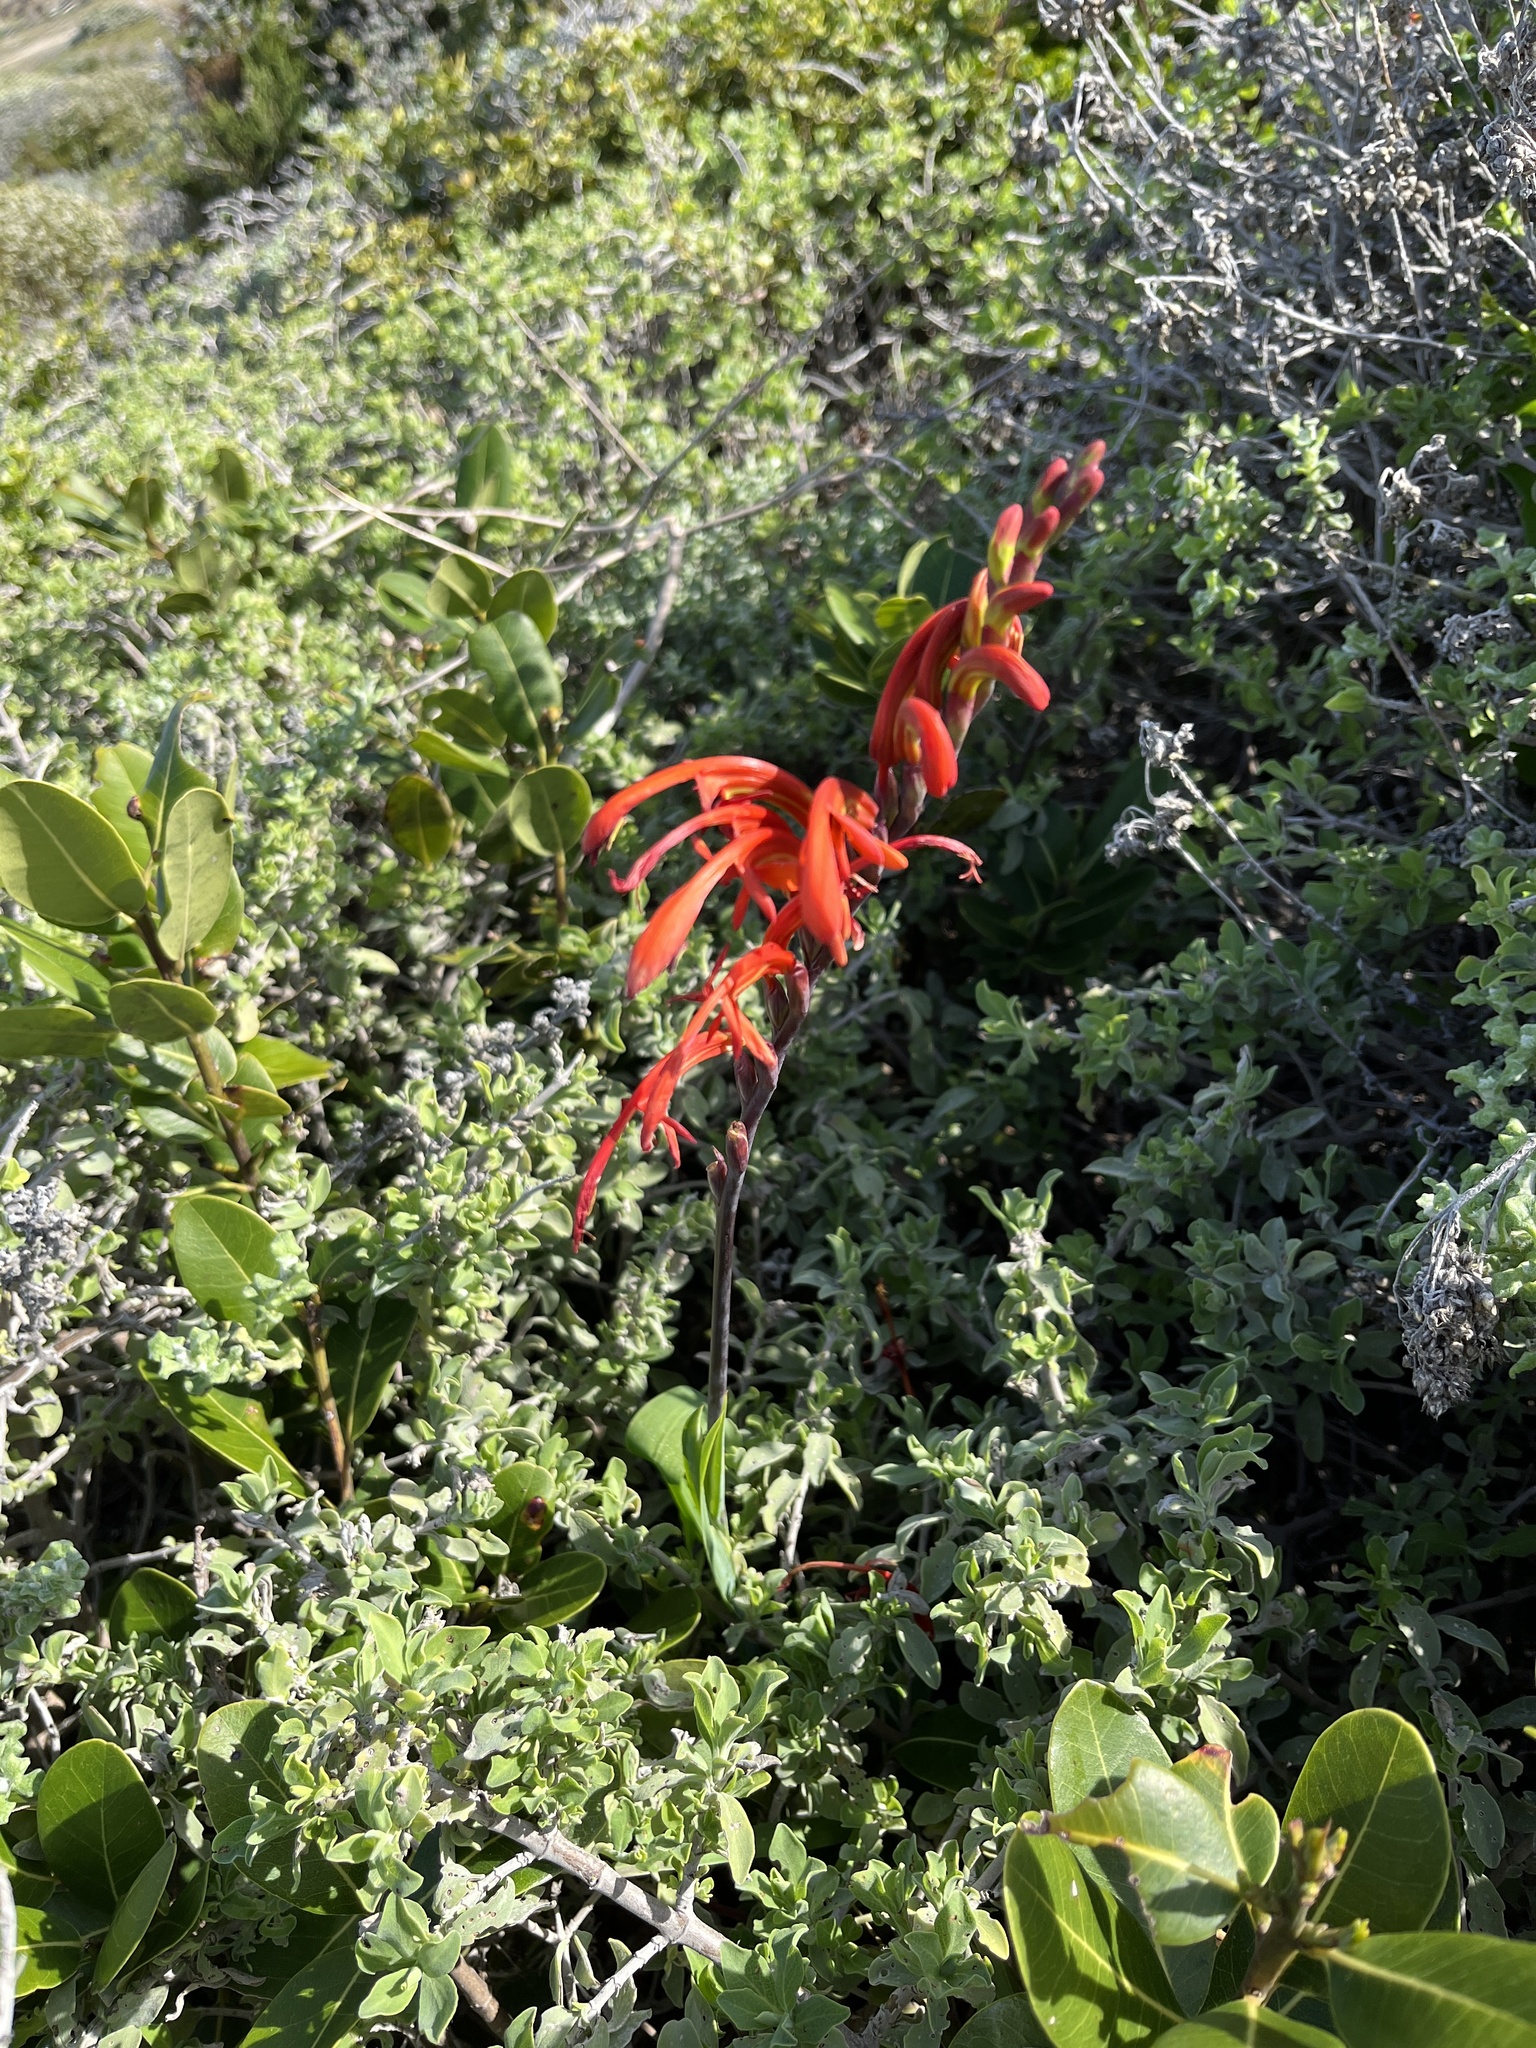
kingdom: Plantae
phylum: Tracheophyta
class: Liliopsida
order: Asparagales
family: Iridaceae
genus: Chasmanthe
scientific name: Chasmanthe aethiopica
